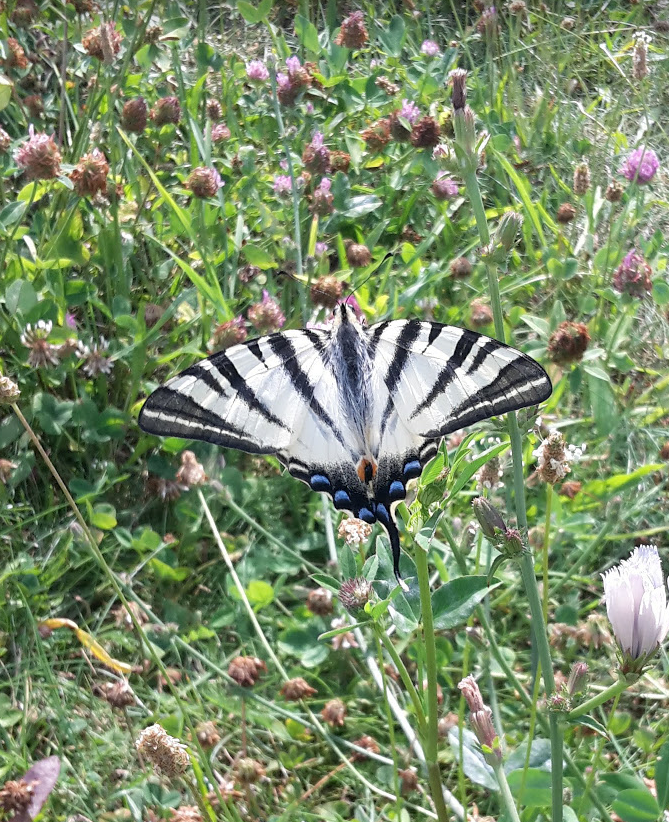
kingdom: Animalia
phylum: Arthropoda
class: Insecta
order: Lepidoptera
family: Papilionidae
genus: Iphiclides
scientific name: Iphiclides podalirius
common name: Scarce swallowtail
